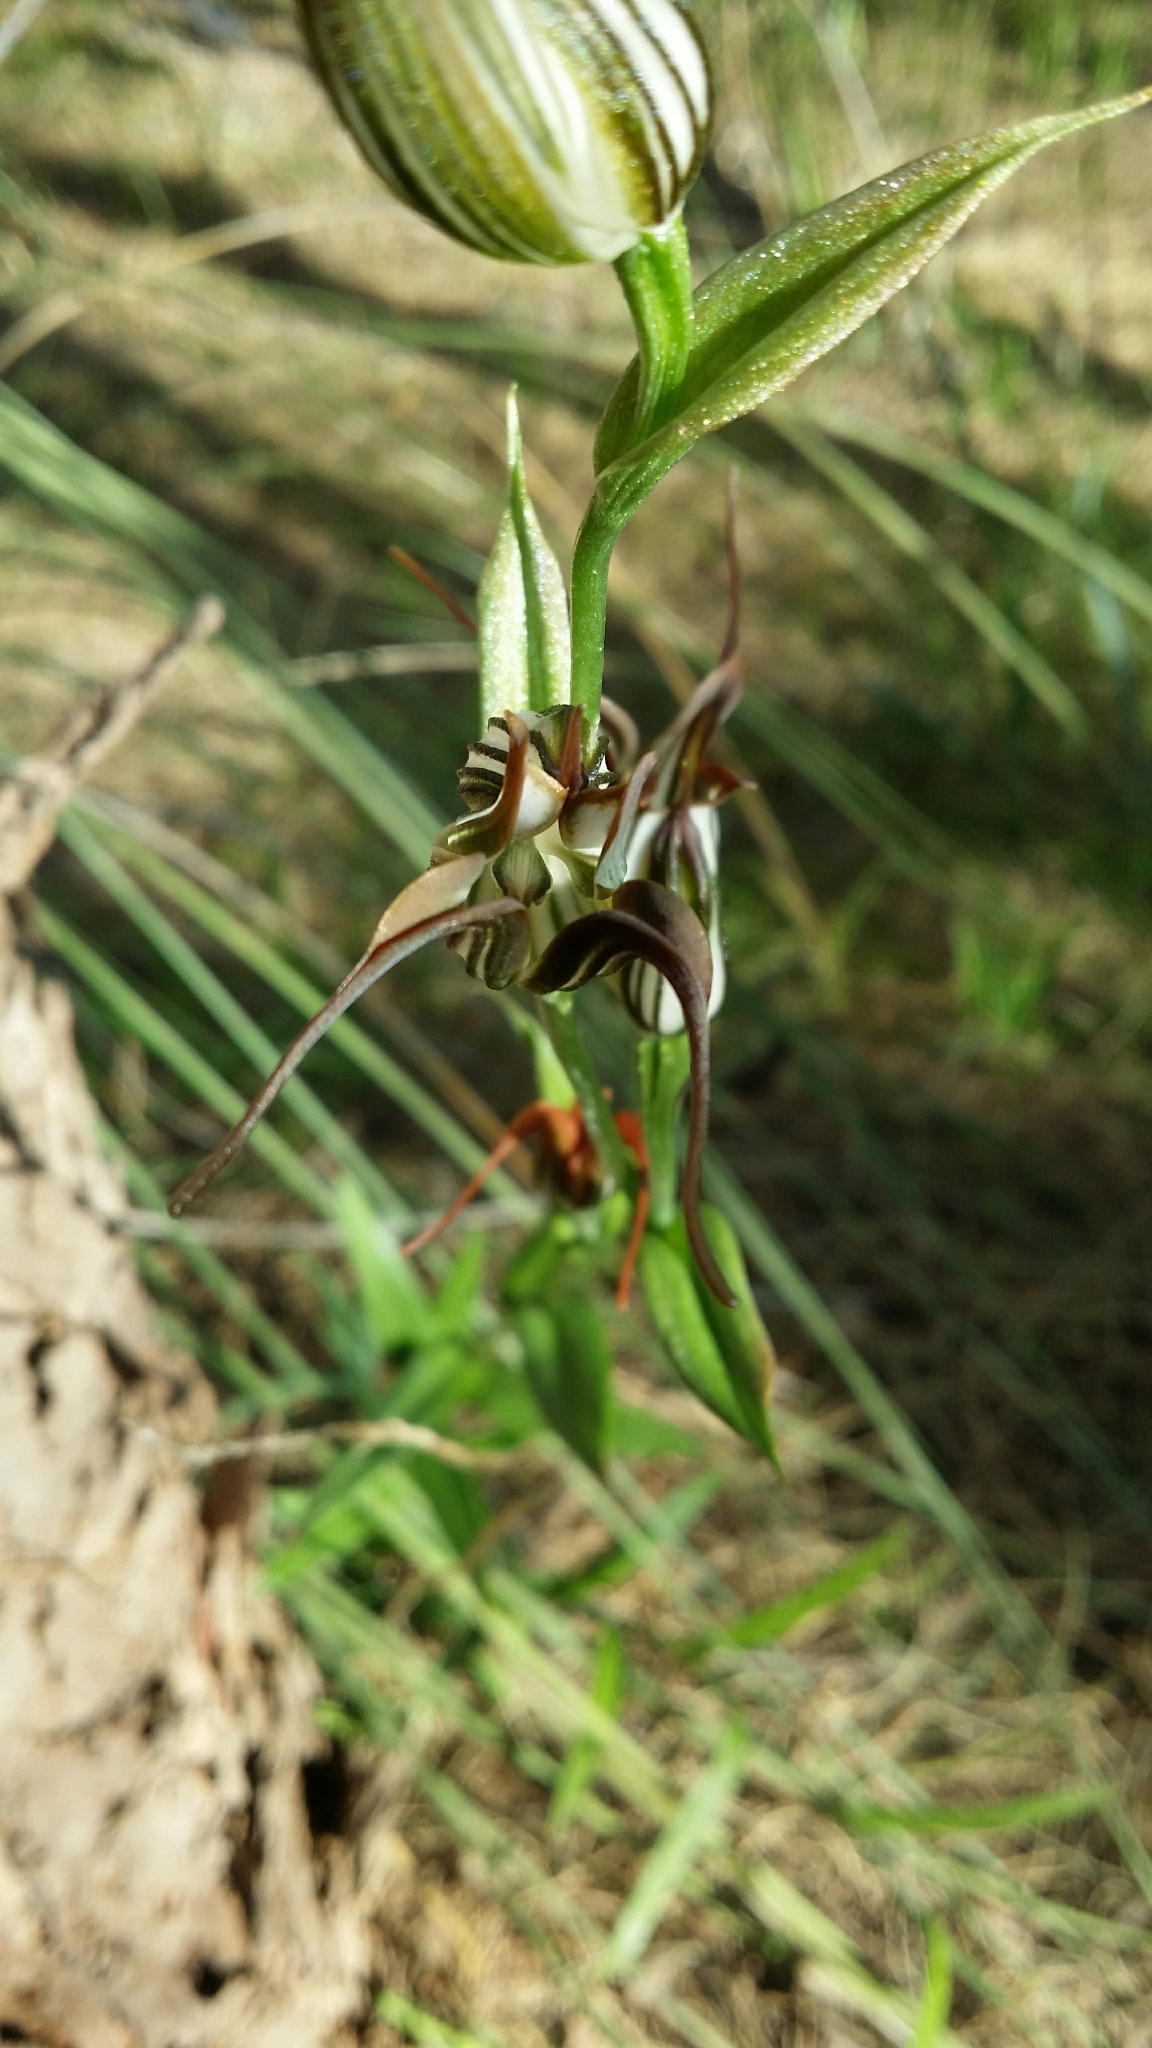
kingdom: Plantae
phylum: Tracheophyta
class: Liliopsida
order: Asparagales
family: Orchidaceae
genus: Pterostylis
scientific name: Pterostylis recurva
